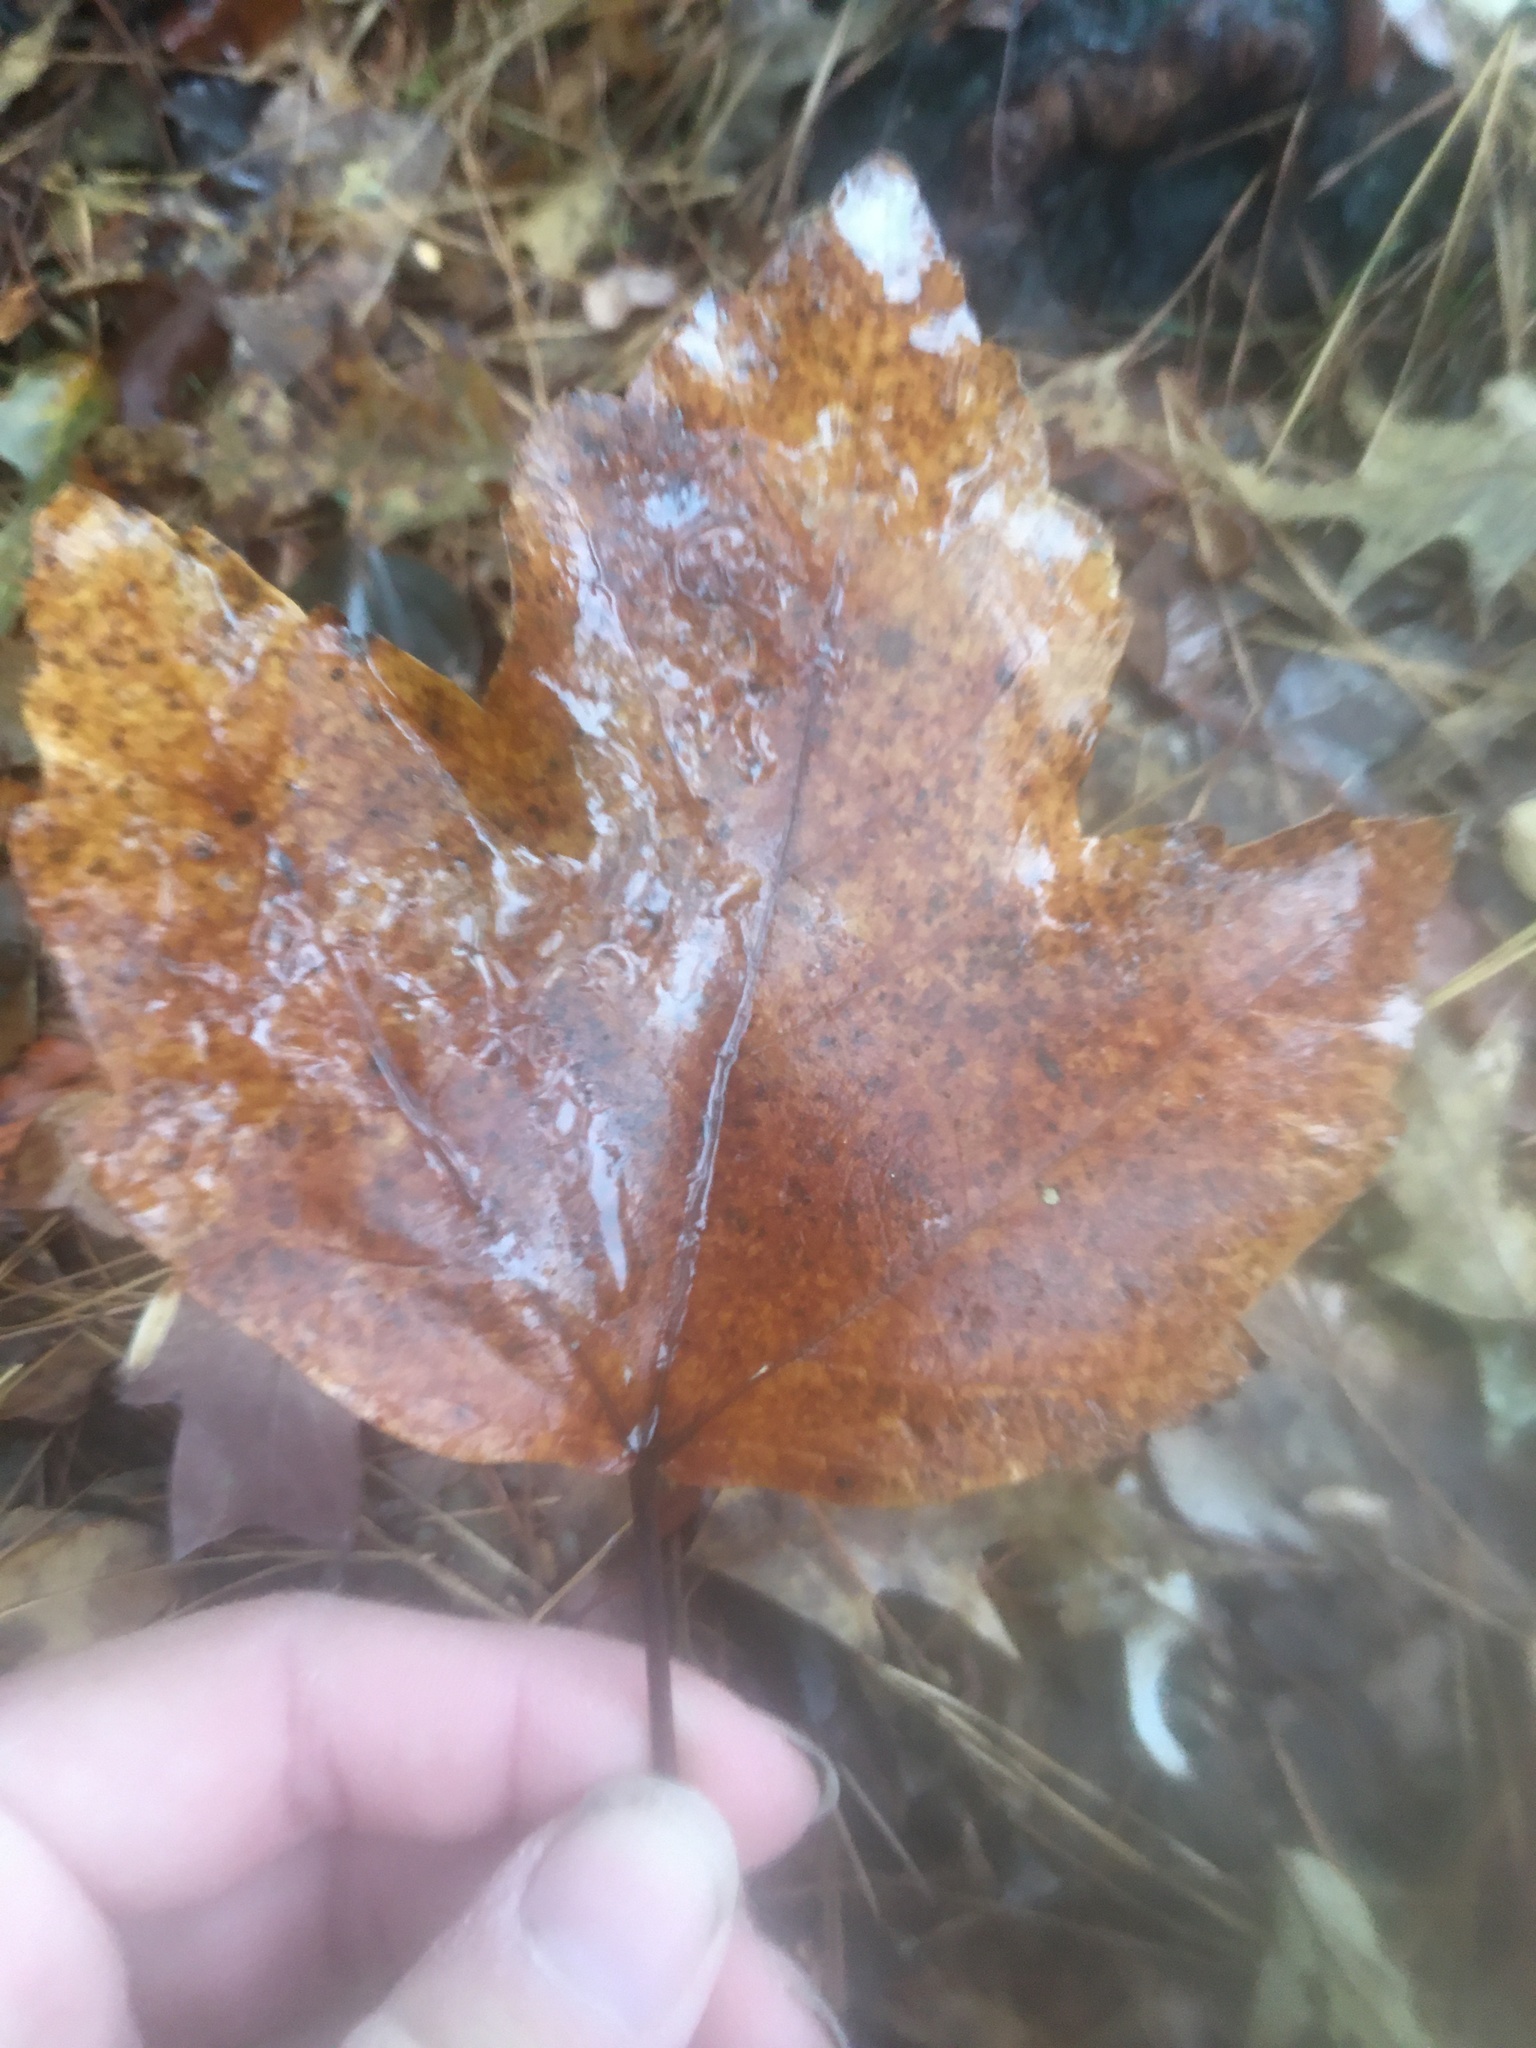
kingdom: Plantae
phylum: Tracheophyta
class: Magnoliopsida
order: Sapindales
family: Sapindaceae
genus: Acer
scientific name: Acer rubrum
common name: Red maple
